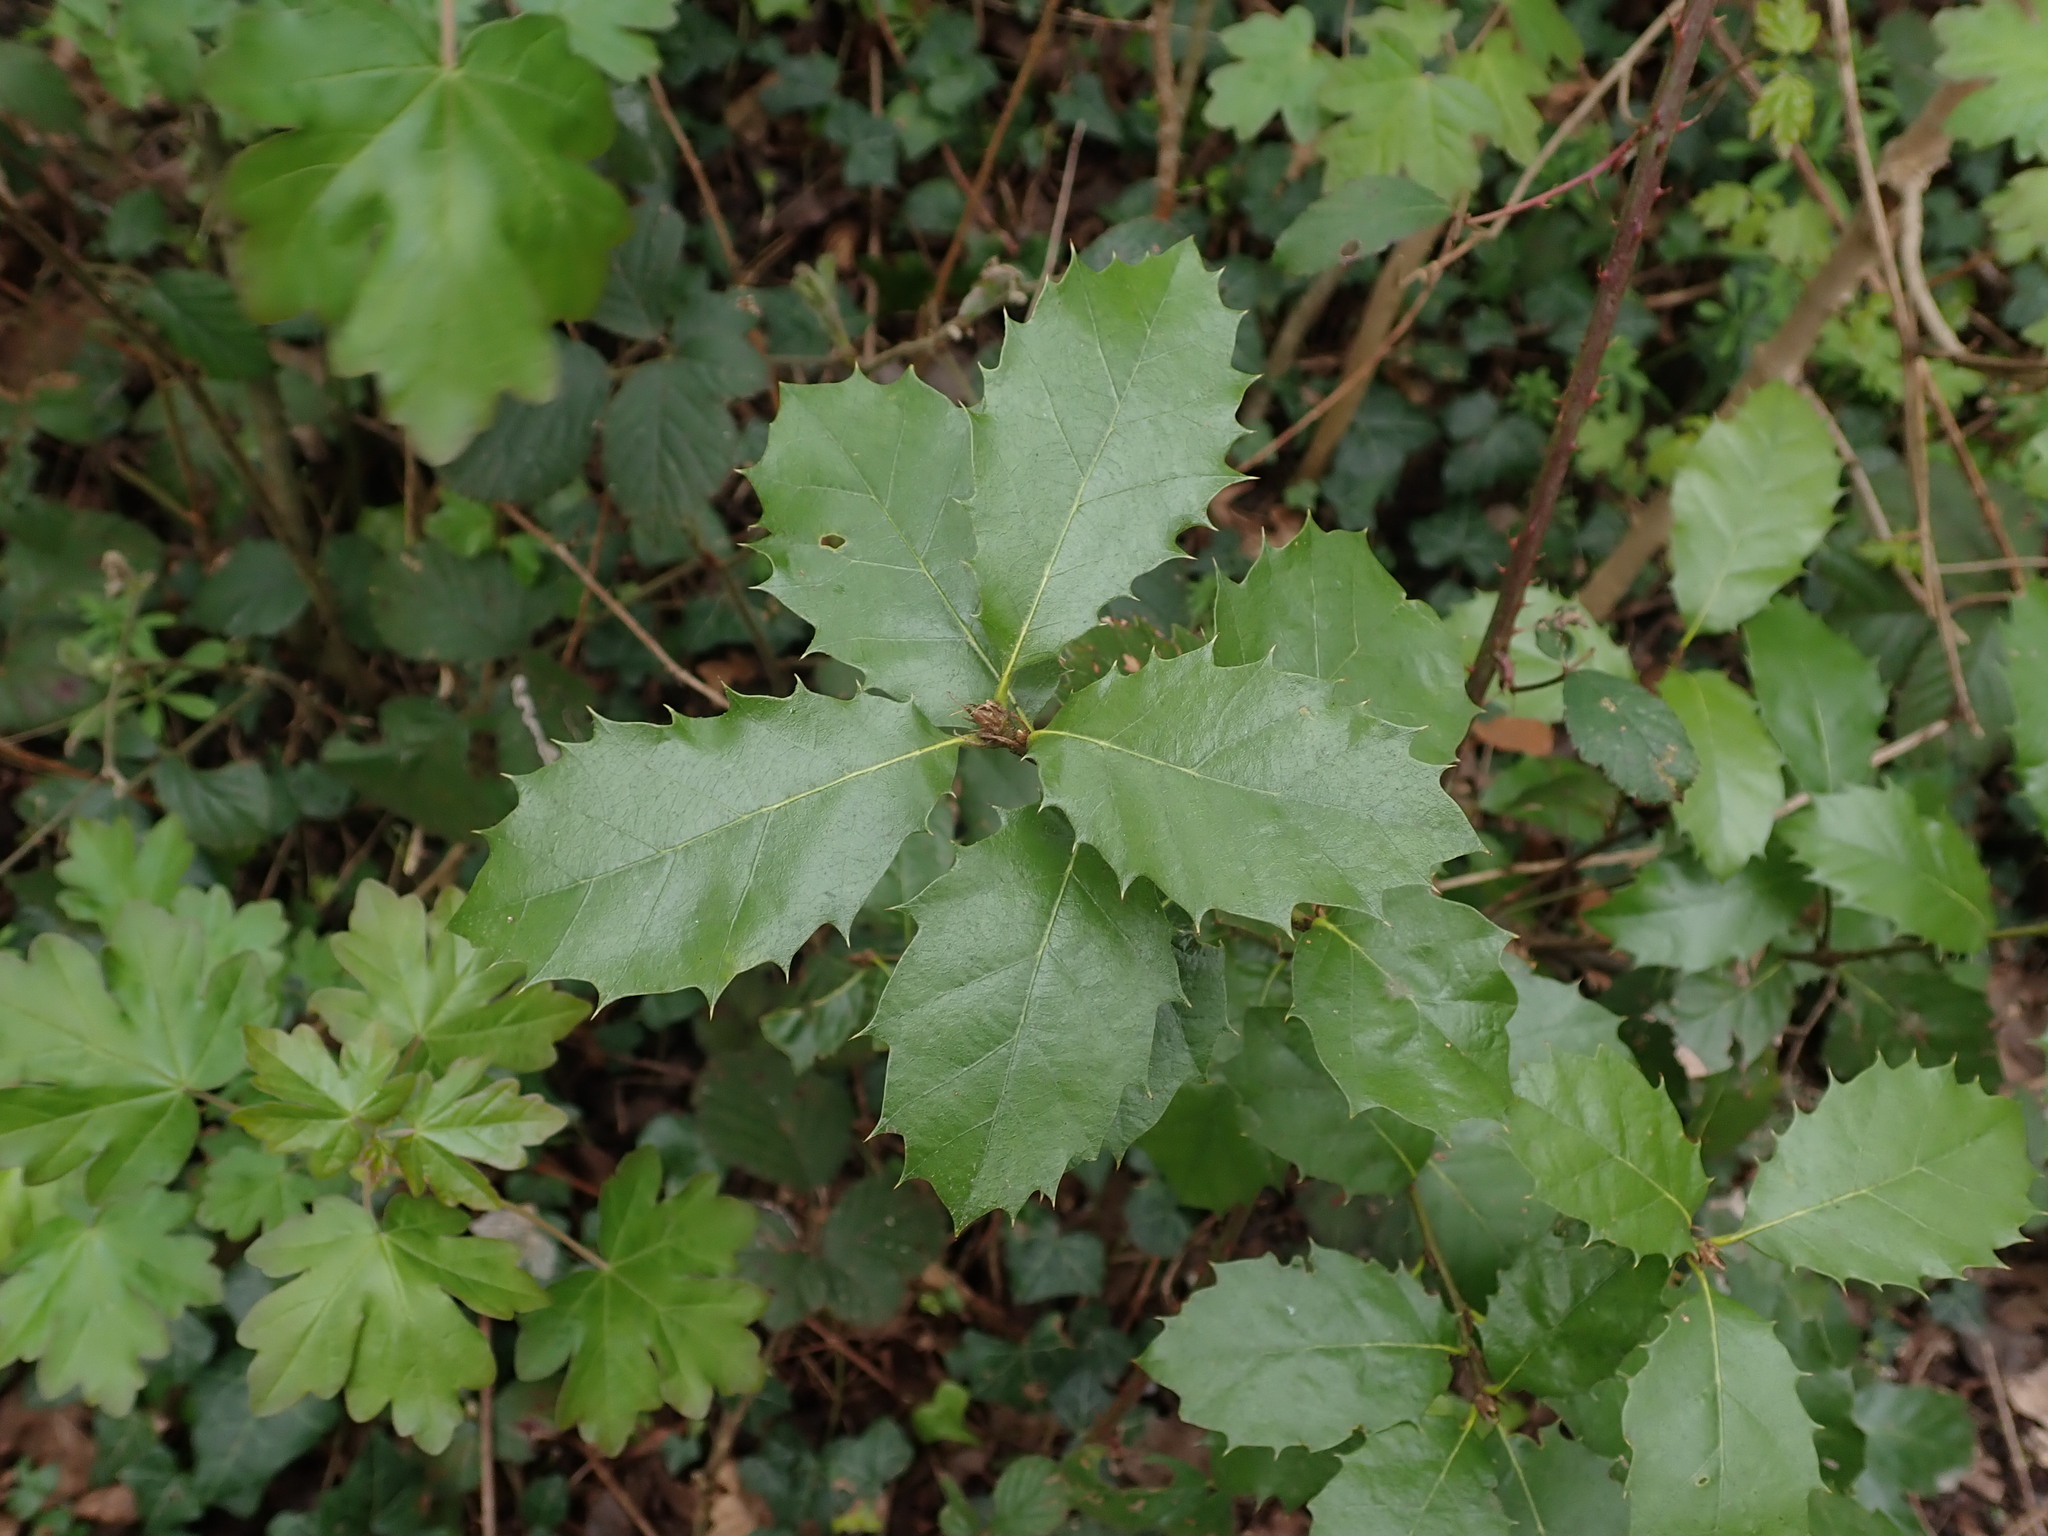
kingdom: Plantae
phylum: Tracheophyta
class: Magnoliopsida
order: Fagales
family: Fagaceae
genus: Quercus
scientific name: Quercus ilex
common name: Evergreen oak
